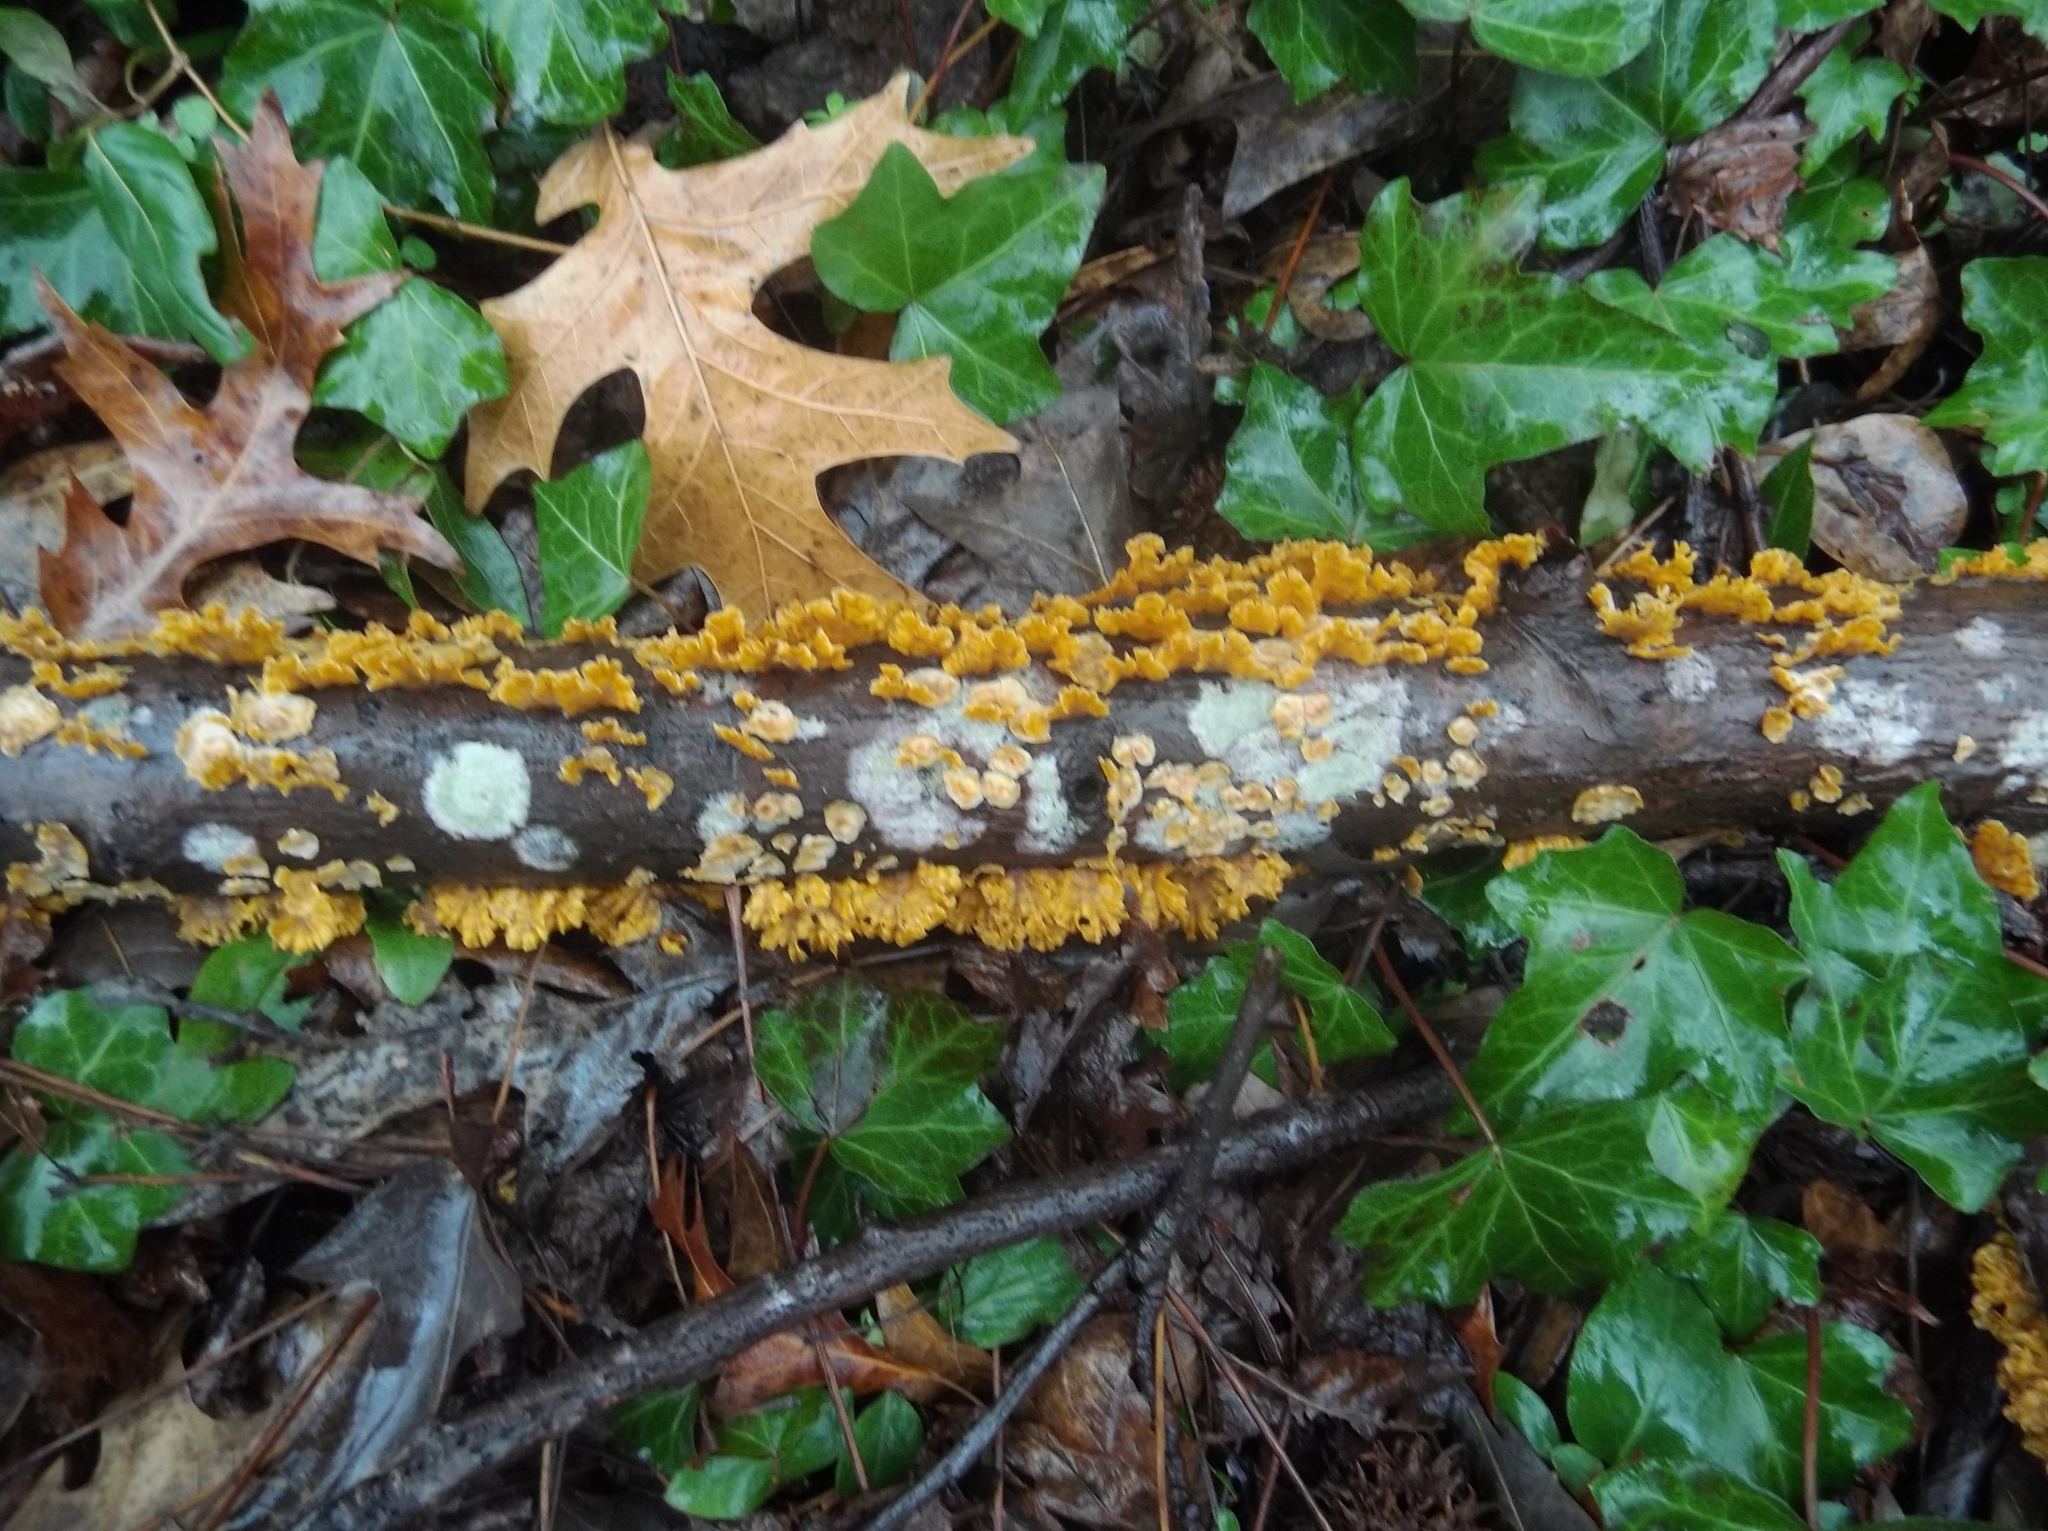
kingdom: Fungi
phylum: Basidiomycota
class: Agaricomycetes
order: Russulales
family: Stereaceae
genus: Stereum
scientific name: Stereum complicatum
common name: Crowded parchment
